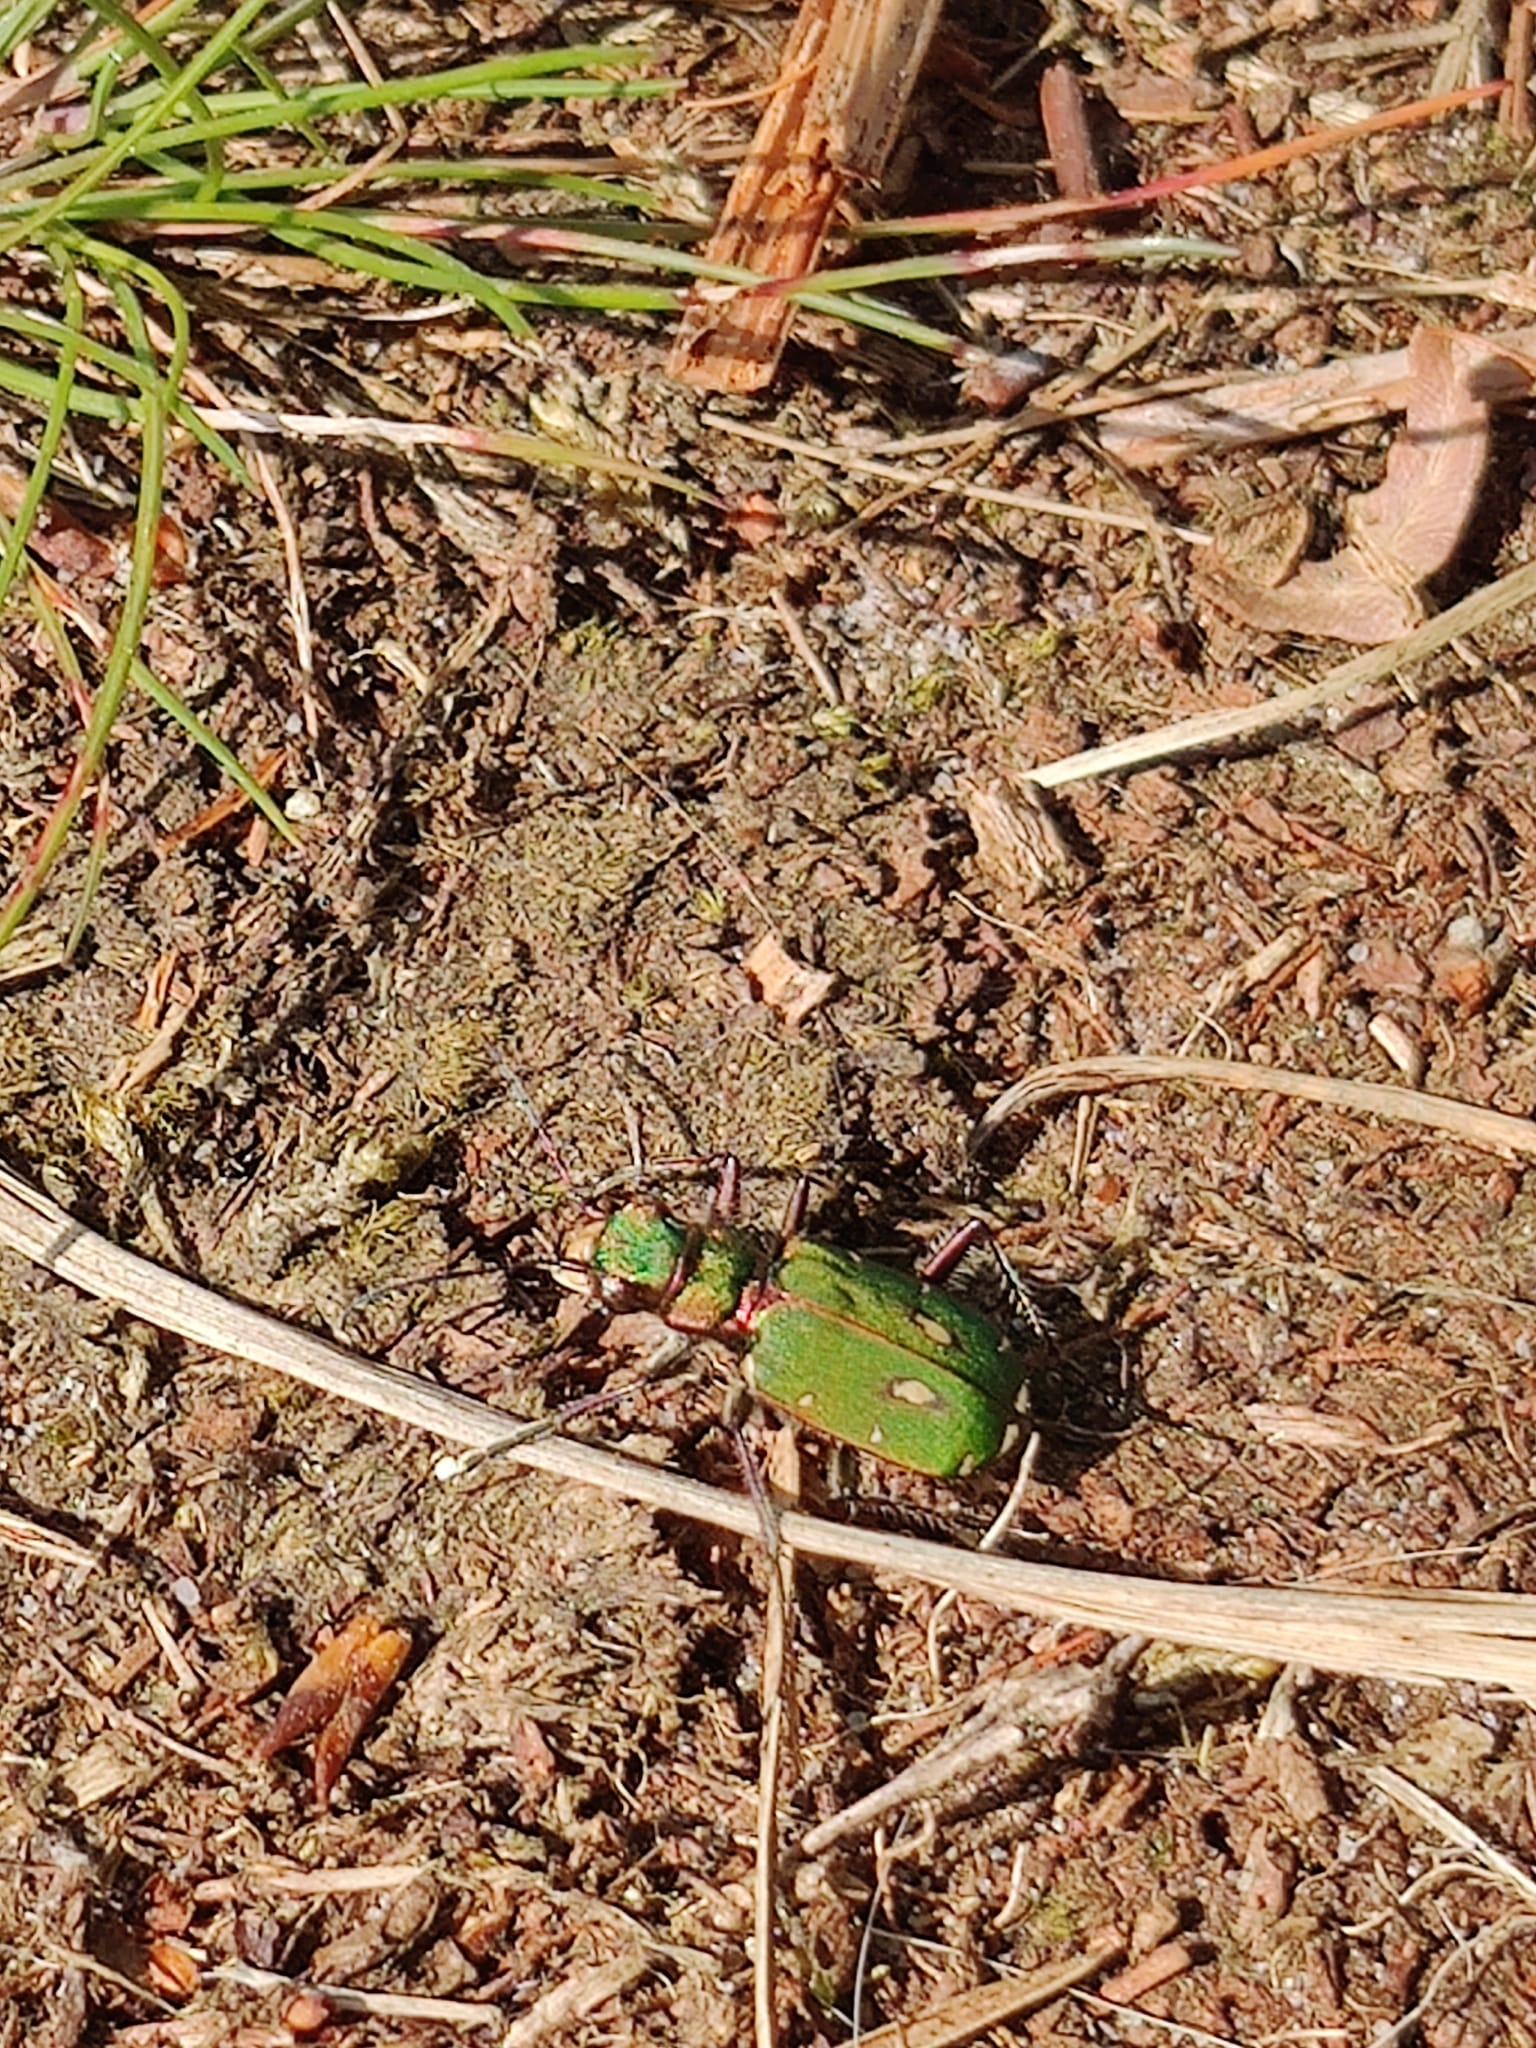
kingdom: Animalia
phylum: Arthropoda
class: Insecta
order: Coleoptera
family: Carabidae
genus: Cicindela
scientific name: Cicindela campestris
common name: Common tiger beetle
